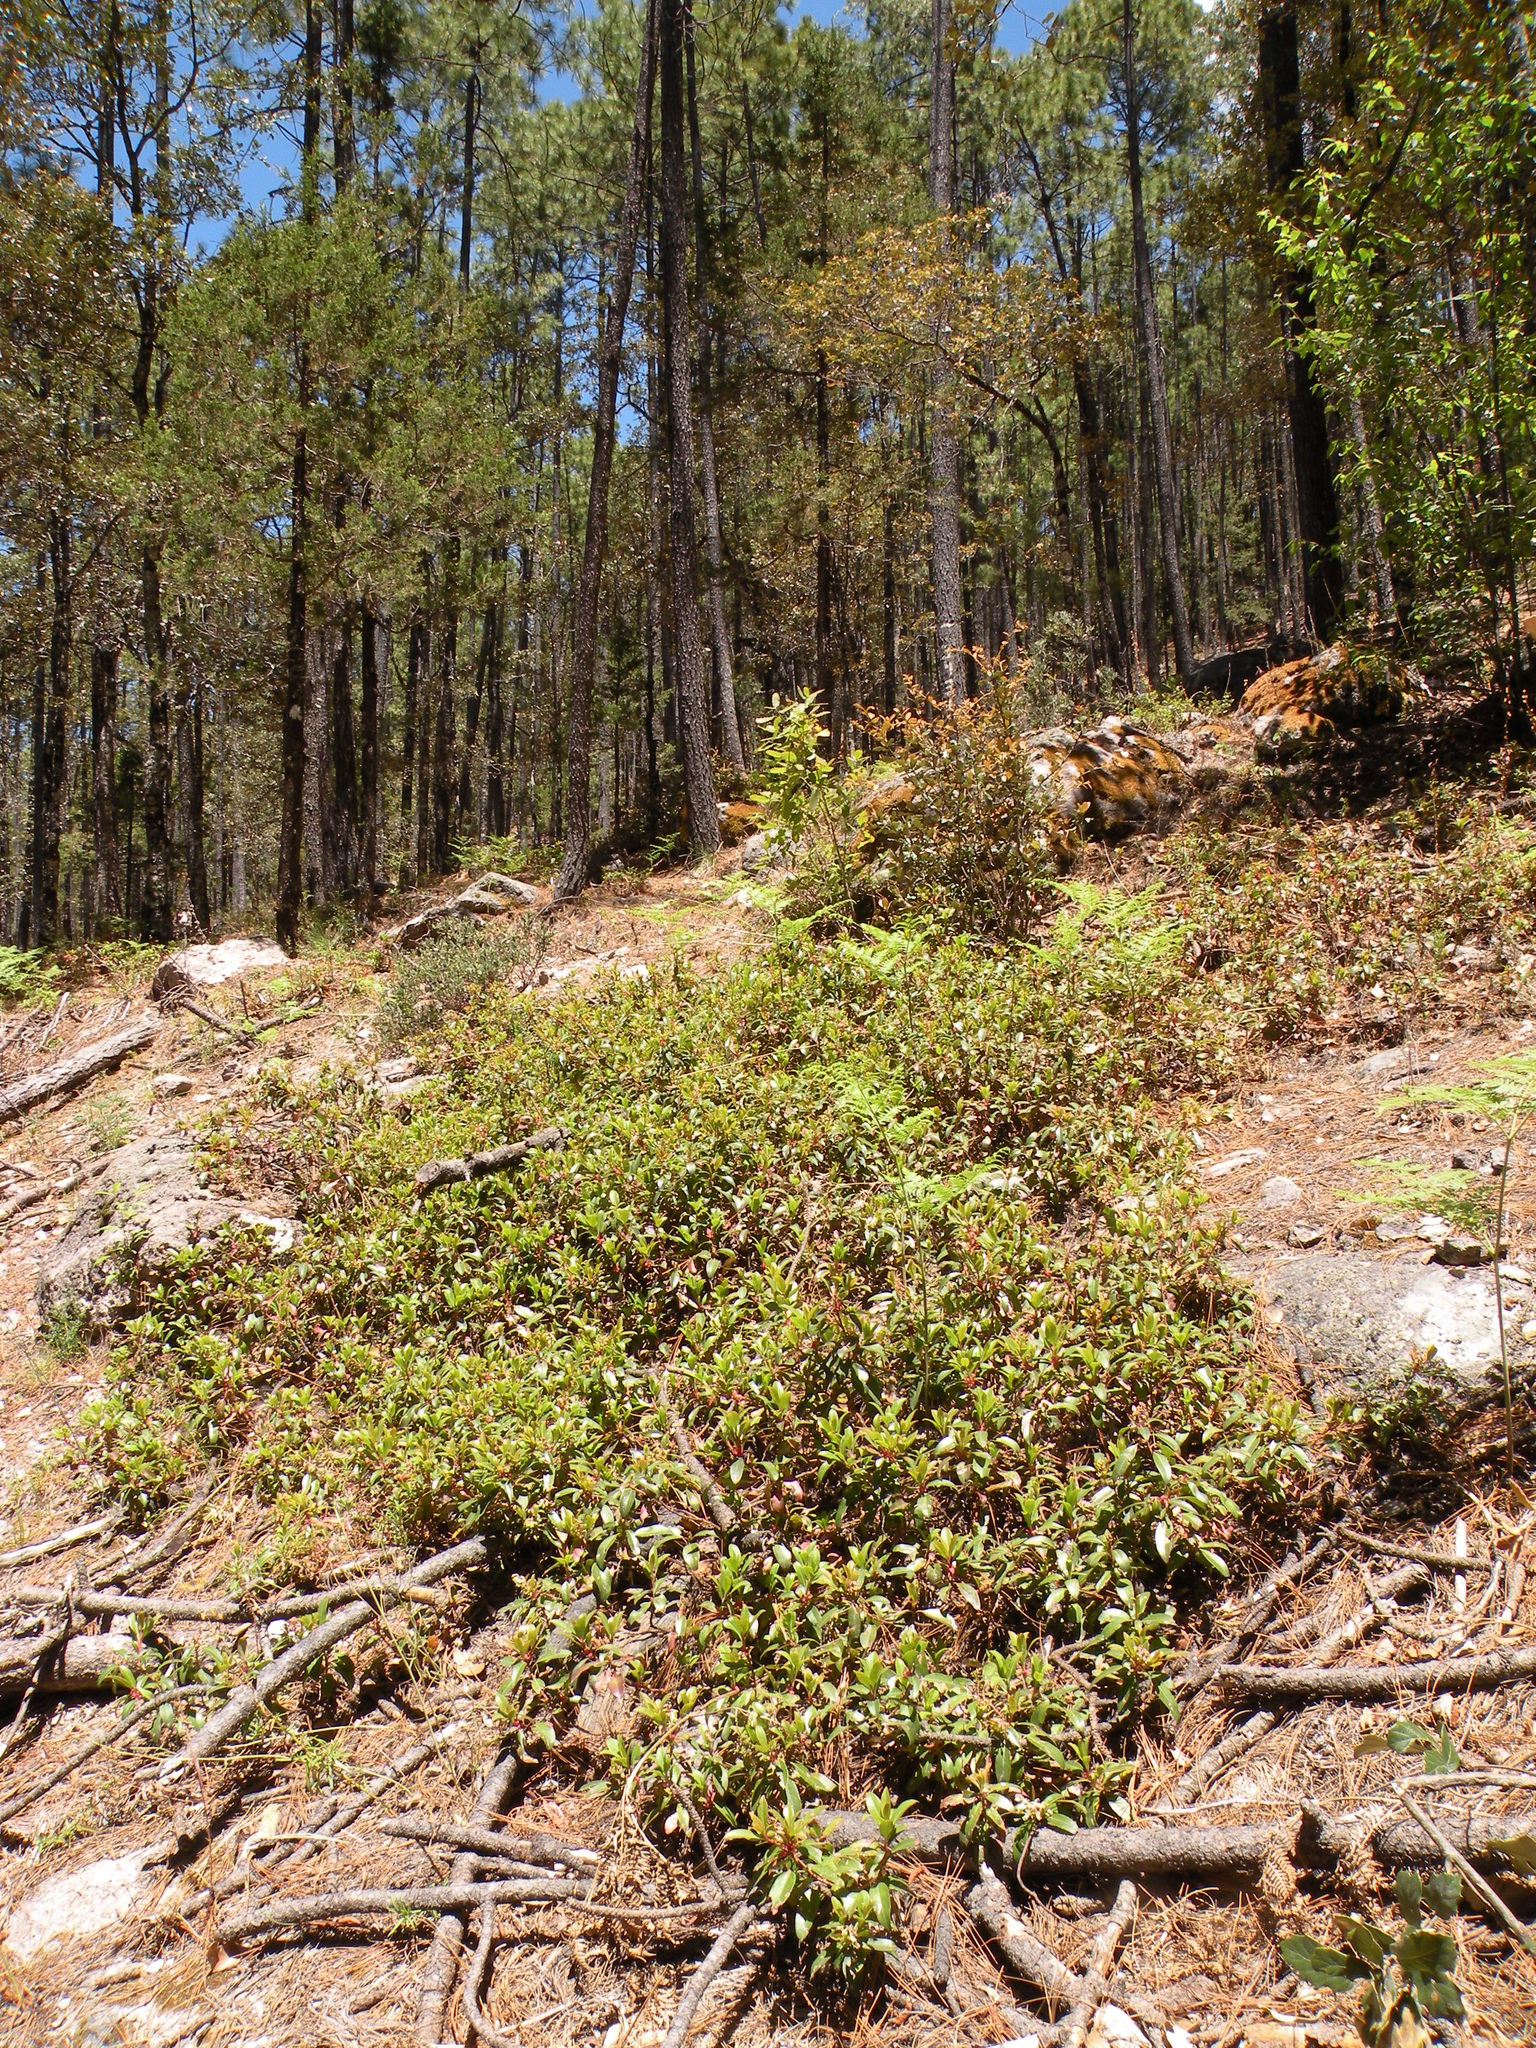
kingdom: Plantae
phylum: Tracheophyta
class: Magnoliopsida
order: Ericales
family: Ericaceae
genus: Arbutus
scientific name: Arbutus mollis
